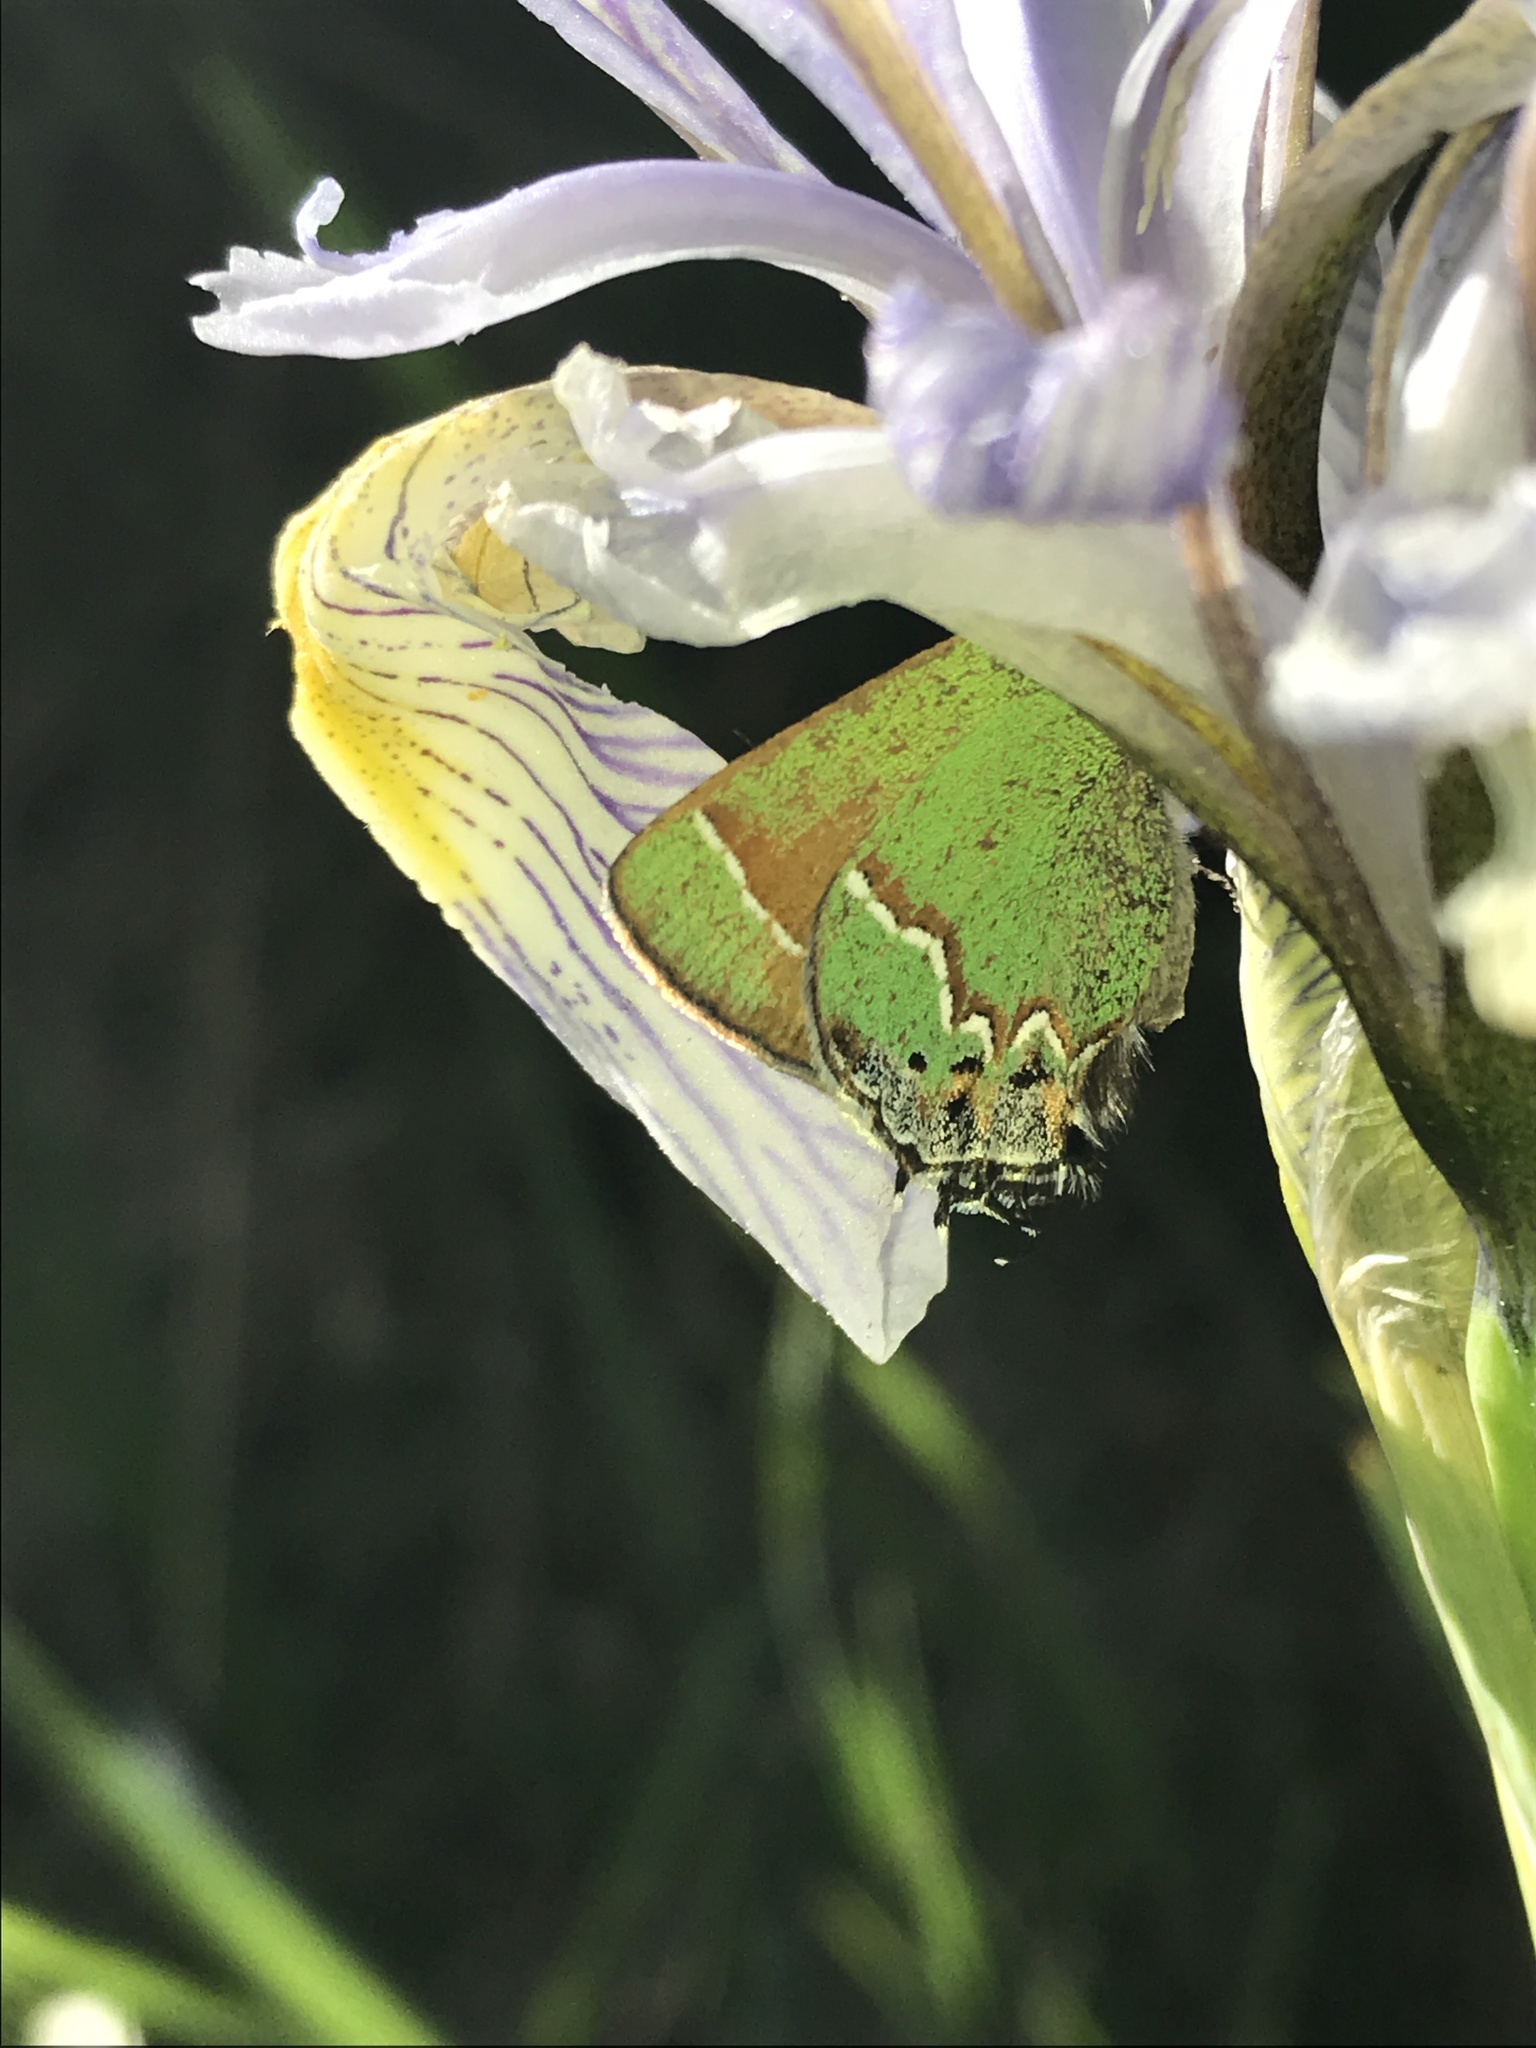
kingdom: Animalia
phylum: Arthropoda
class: Insecta
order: Lepidoptera
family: Lycaenidae
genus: Mitoura
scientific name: Mitoura siva
